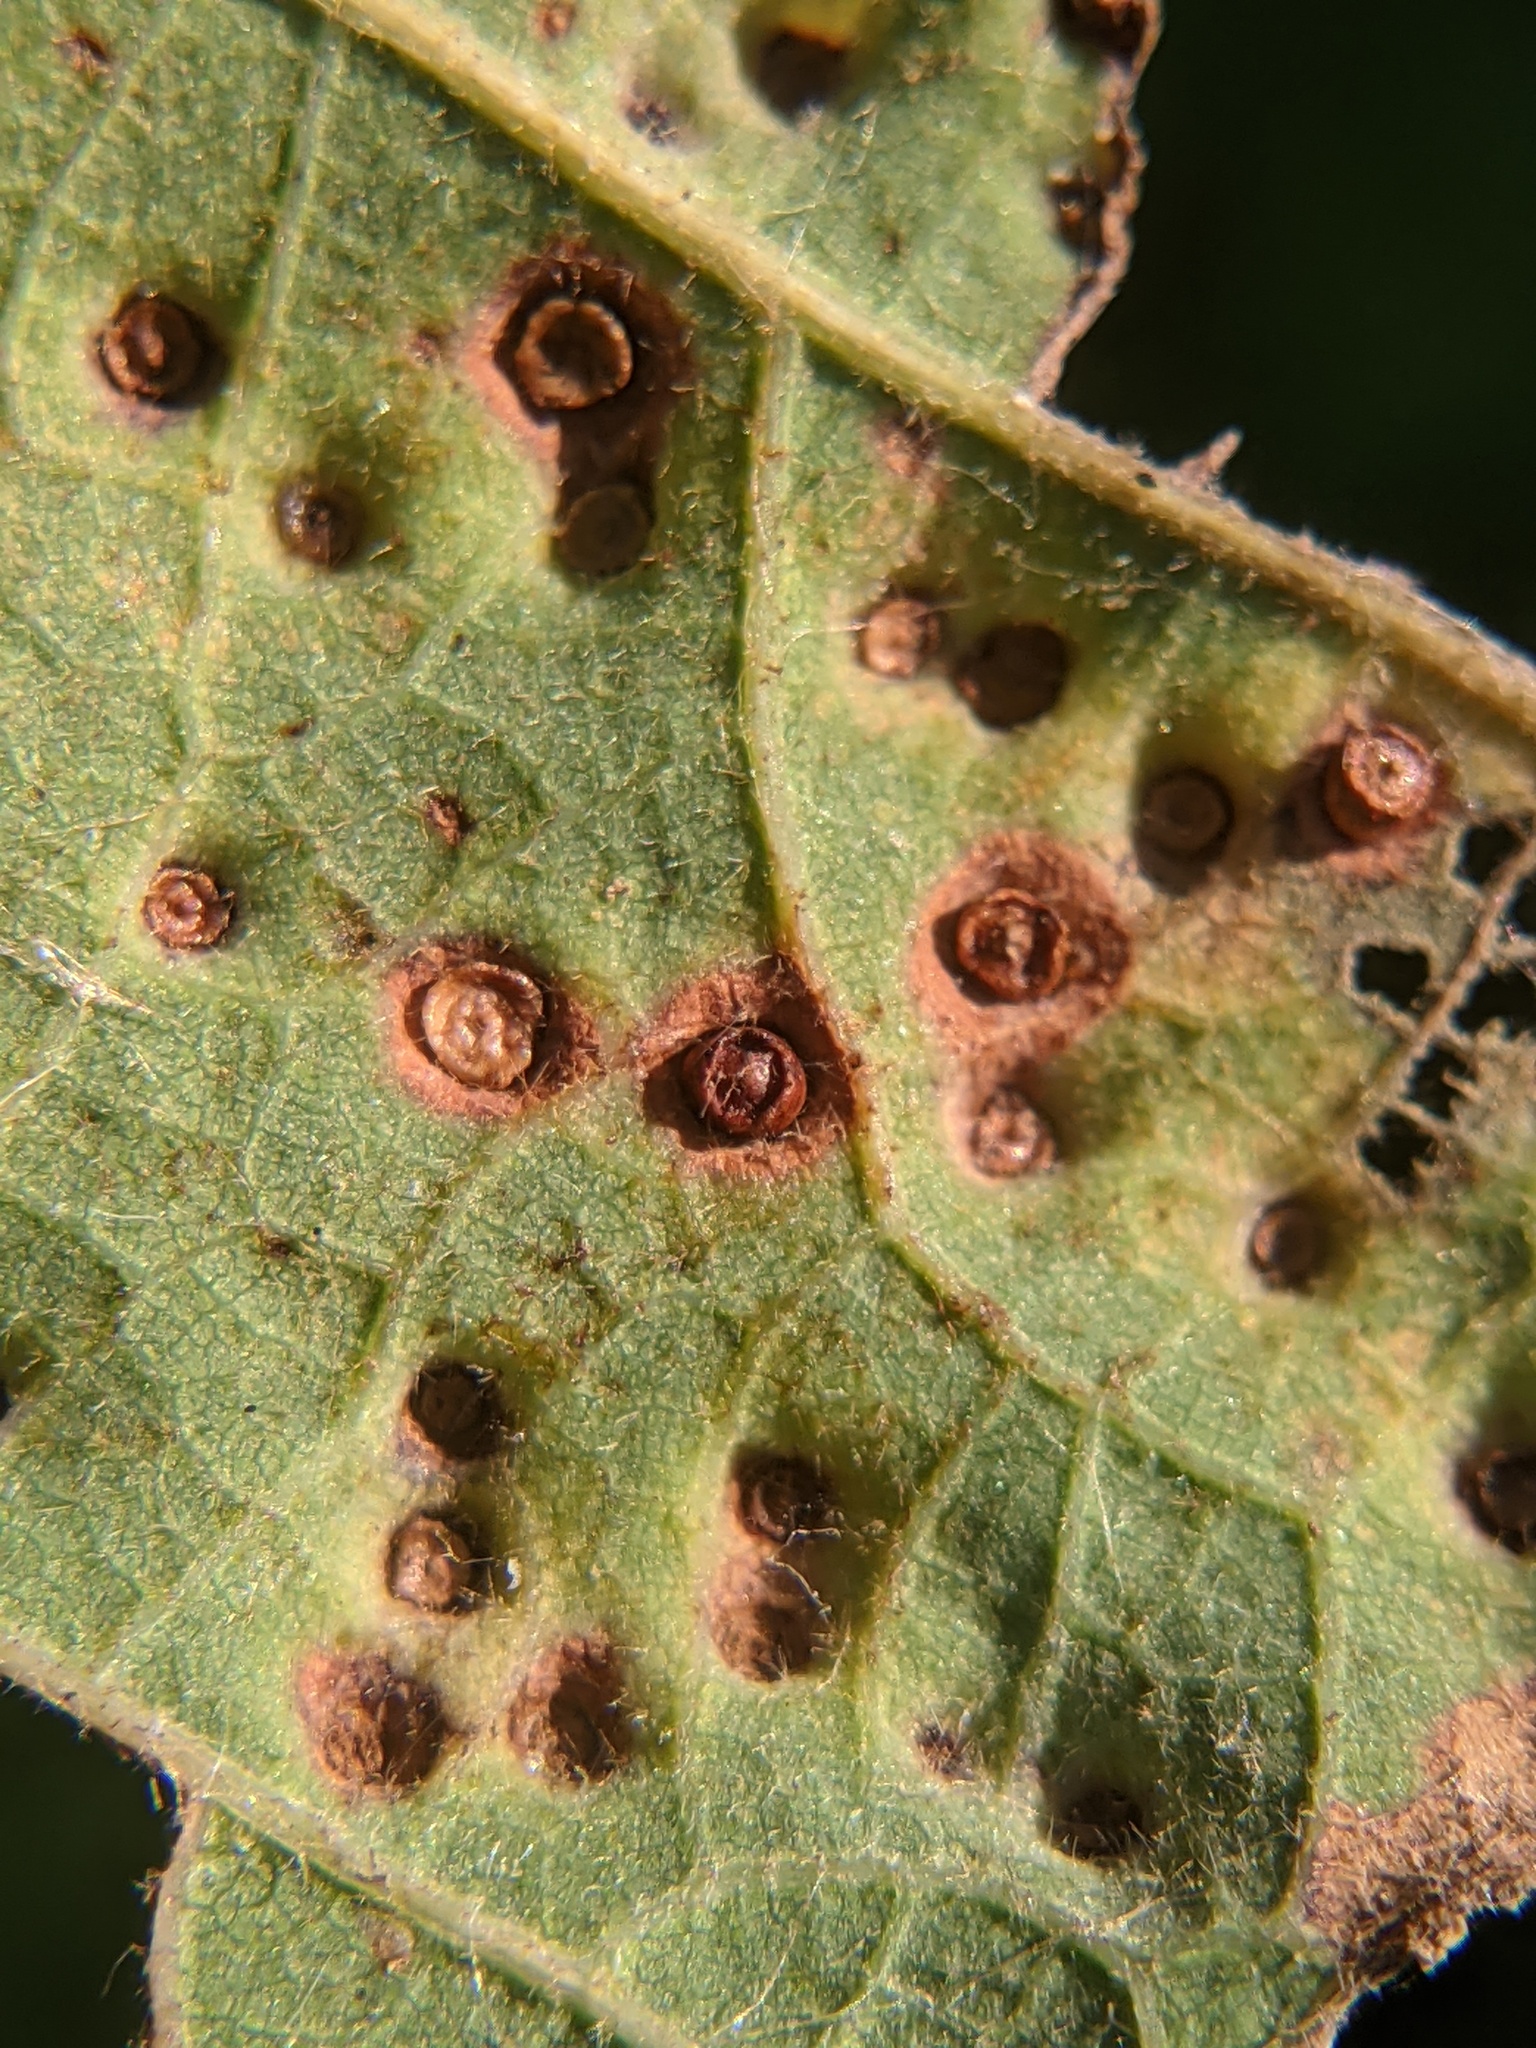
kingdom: Animalia
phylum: Arthropoda
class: Insecta
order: Hymenoptera
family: Cynipidae
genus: Neuroterus
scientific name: Neuroterus saltarius
